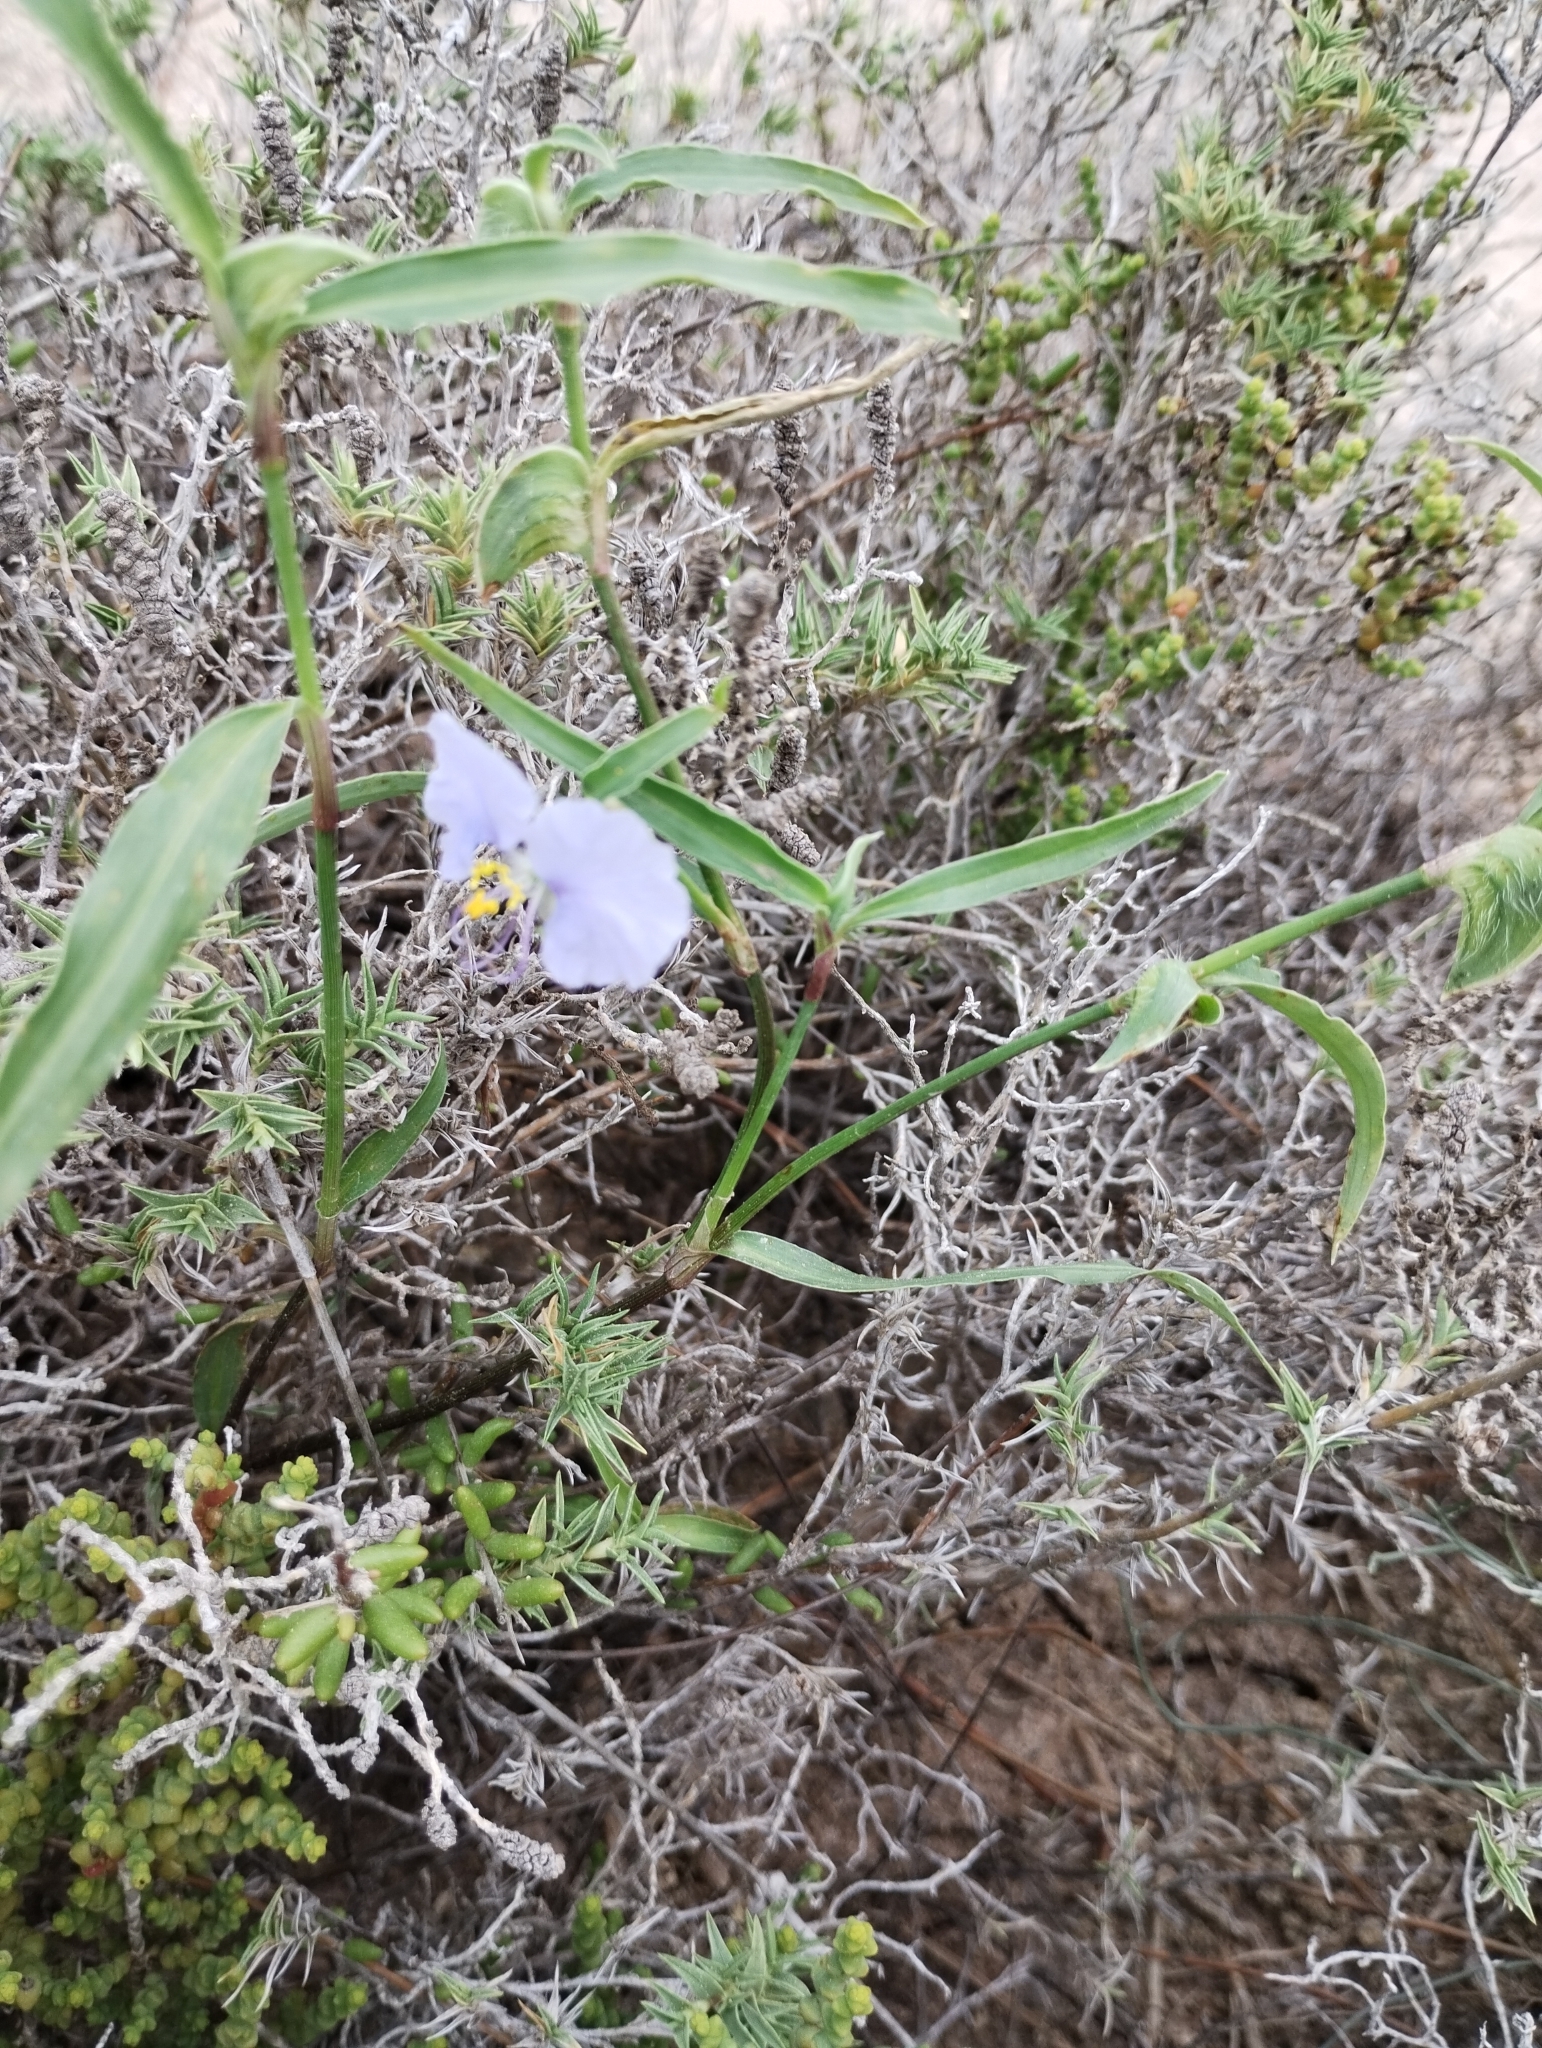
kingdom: Plantae
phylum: Tracheophyta
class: Liliopsida
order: Commelinales
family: Commelinaceae
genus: Commelina
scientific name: Commelina diffusa
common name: Climbing dayflower
